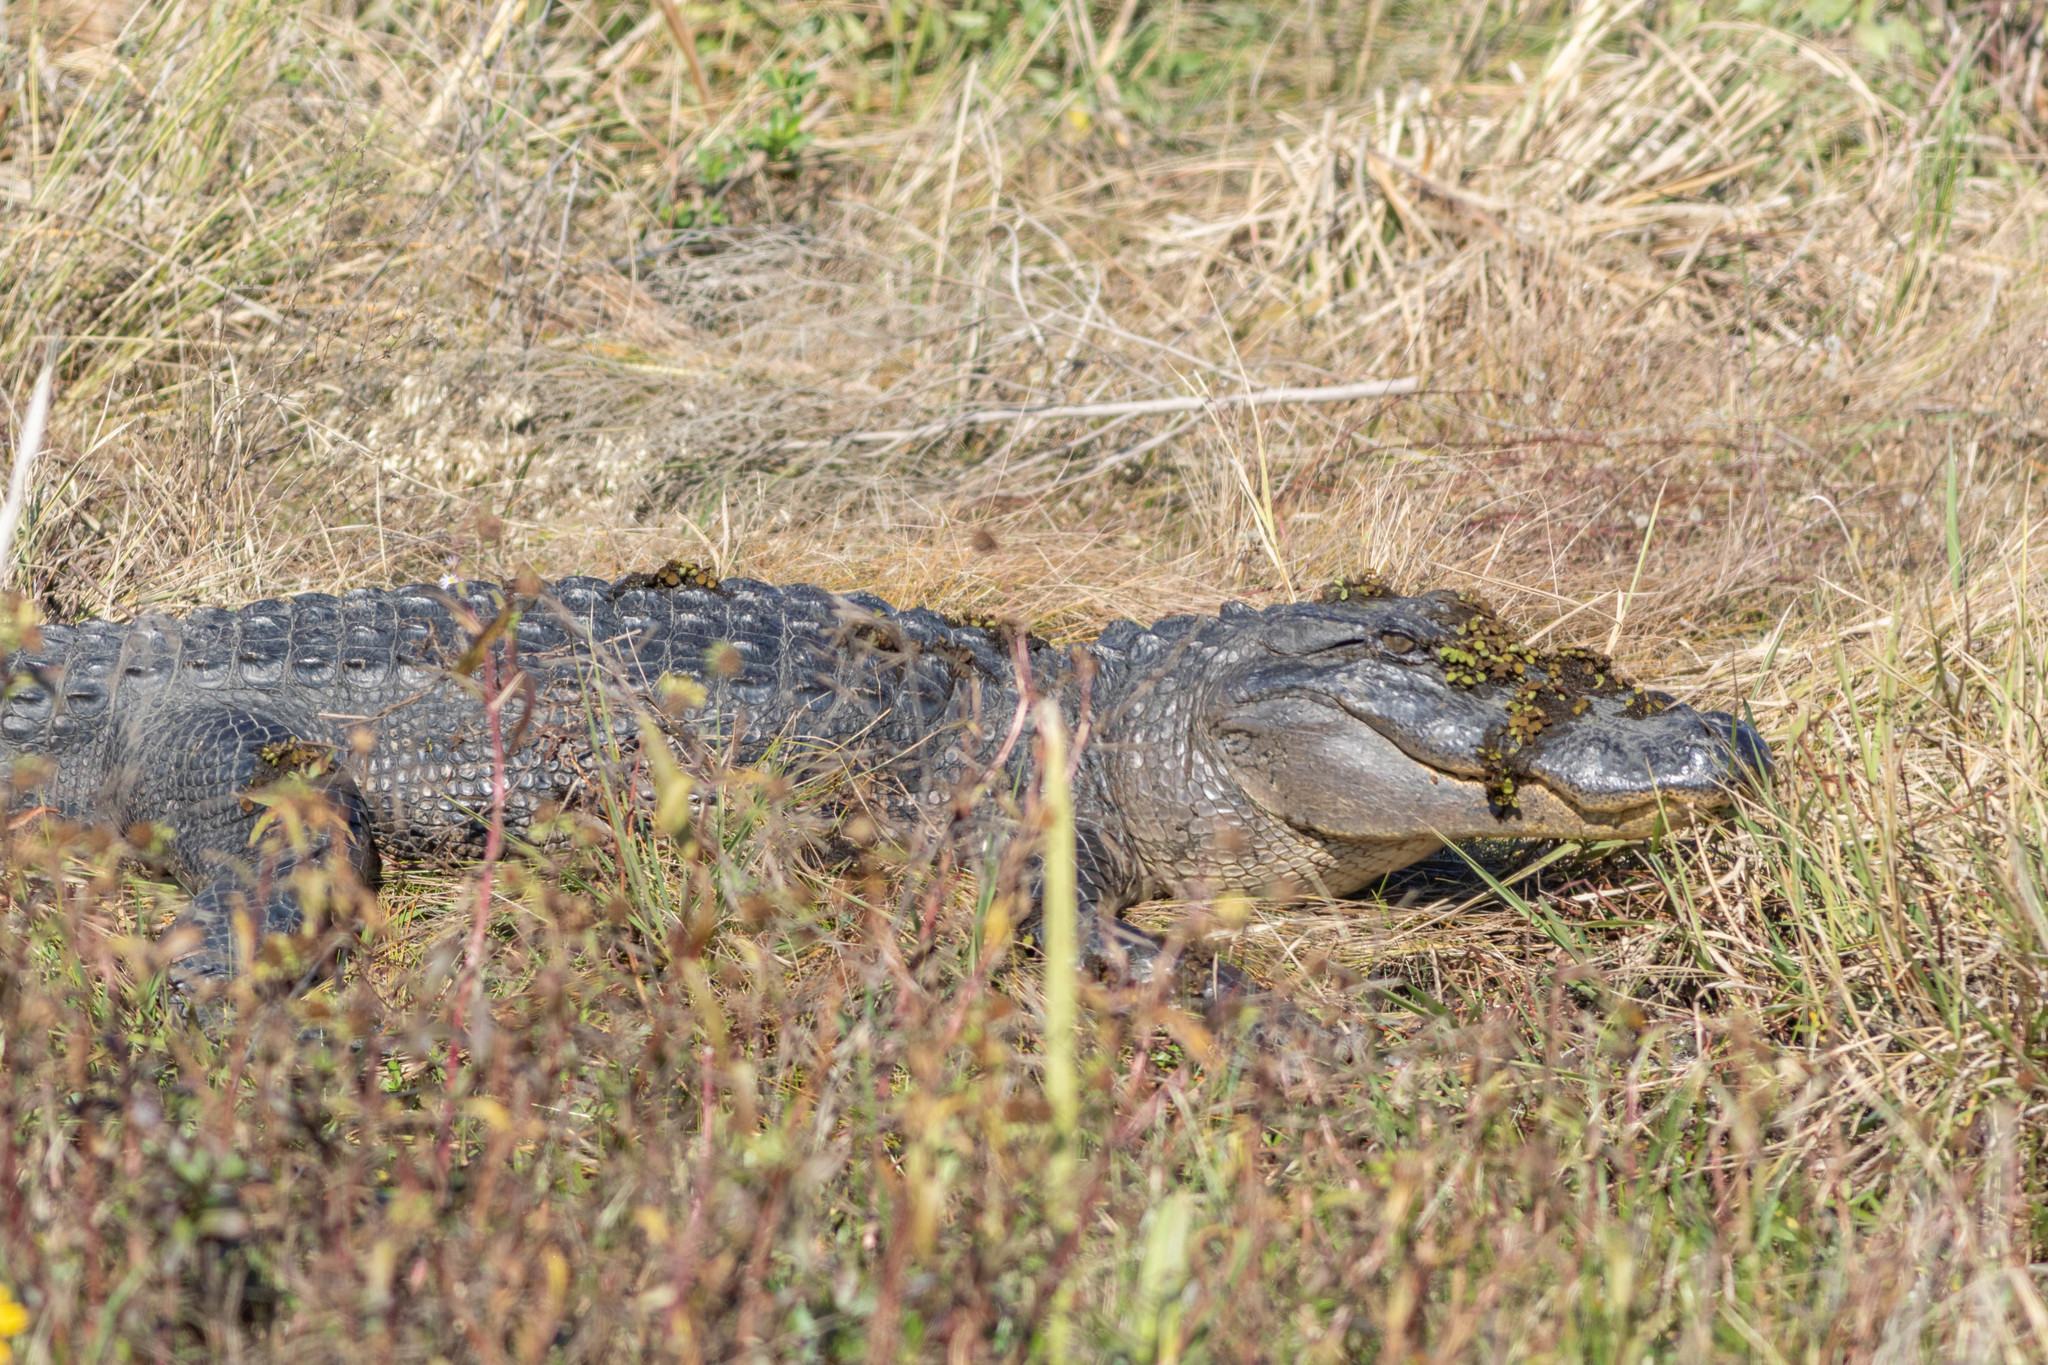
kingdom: Animalia
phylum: Chordata
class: Crocodylia
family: Alligatoridae
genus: Alligator
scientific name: Alligator mississippiensis
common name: American alligator
